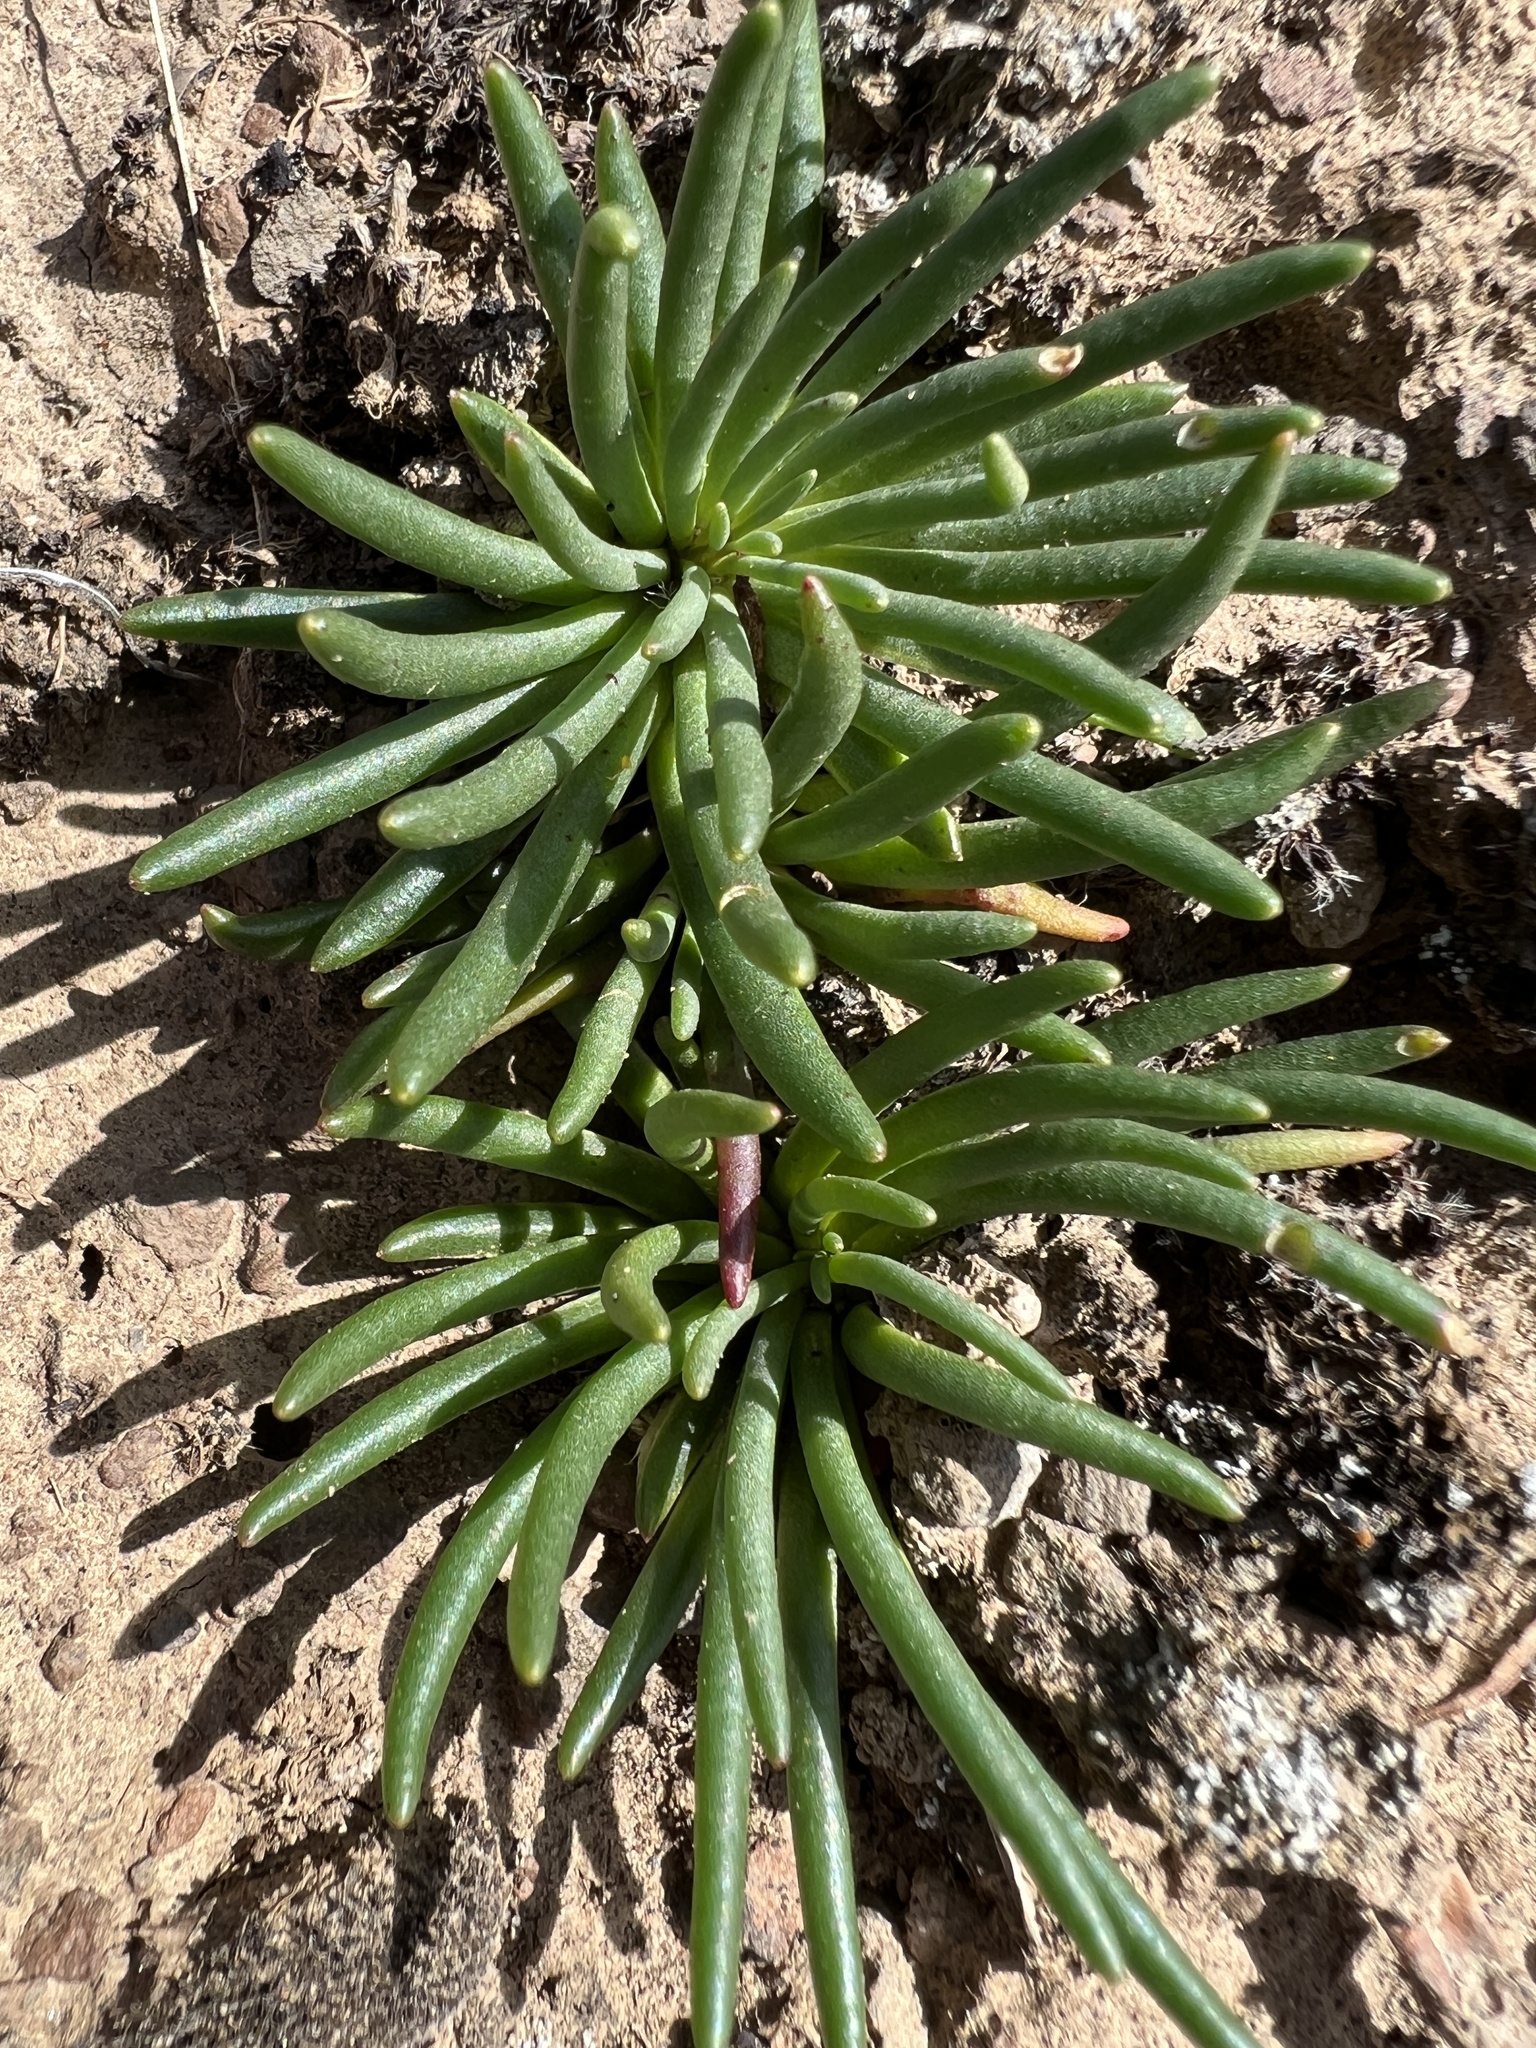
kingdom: Plantae
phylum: Tracheophyta
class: Magnoliopsida
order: Caryophyllales
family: Montiaceae
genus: Lewisia
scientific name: Lewisia rediviva
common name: Bitter-root
